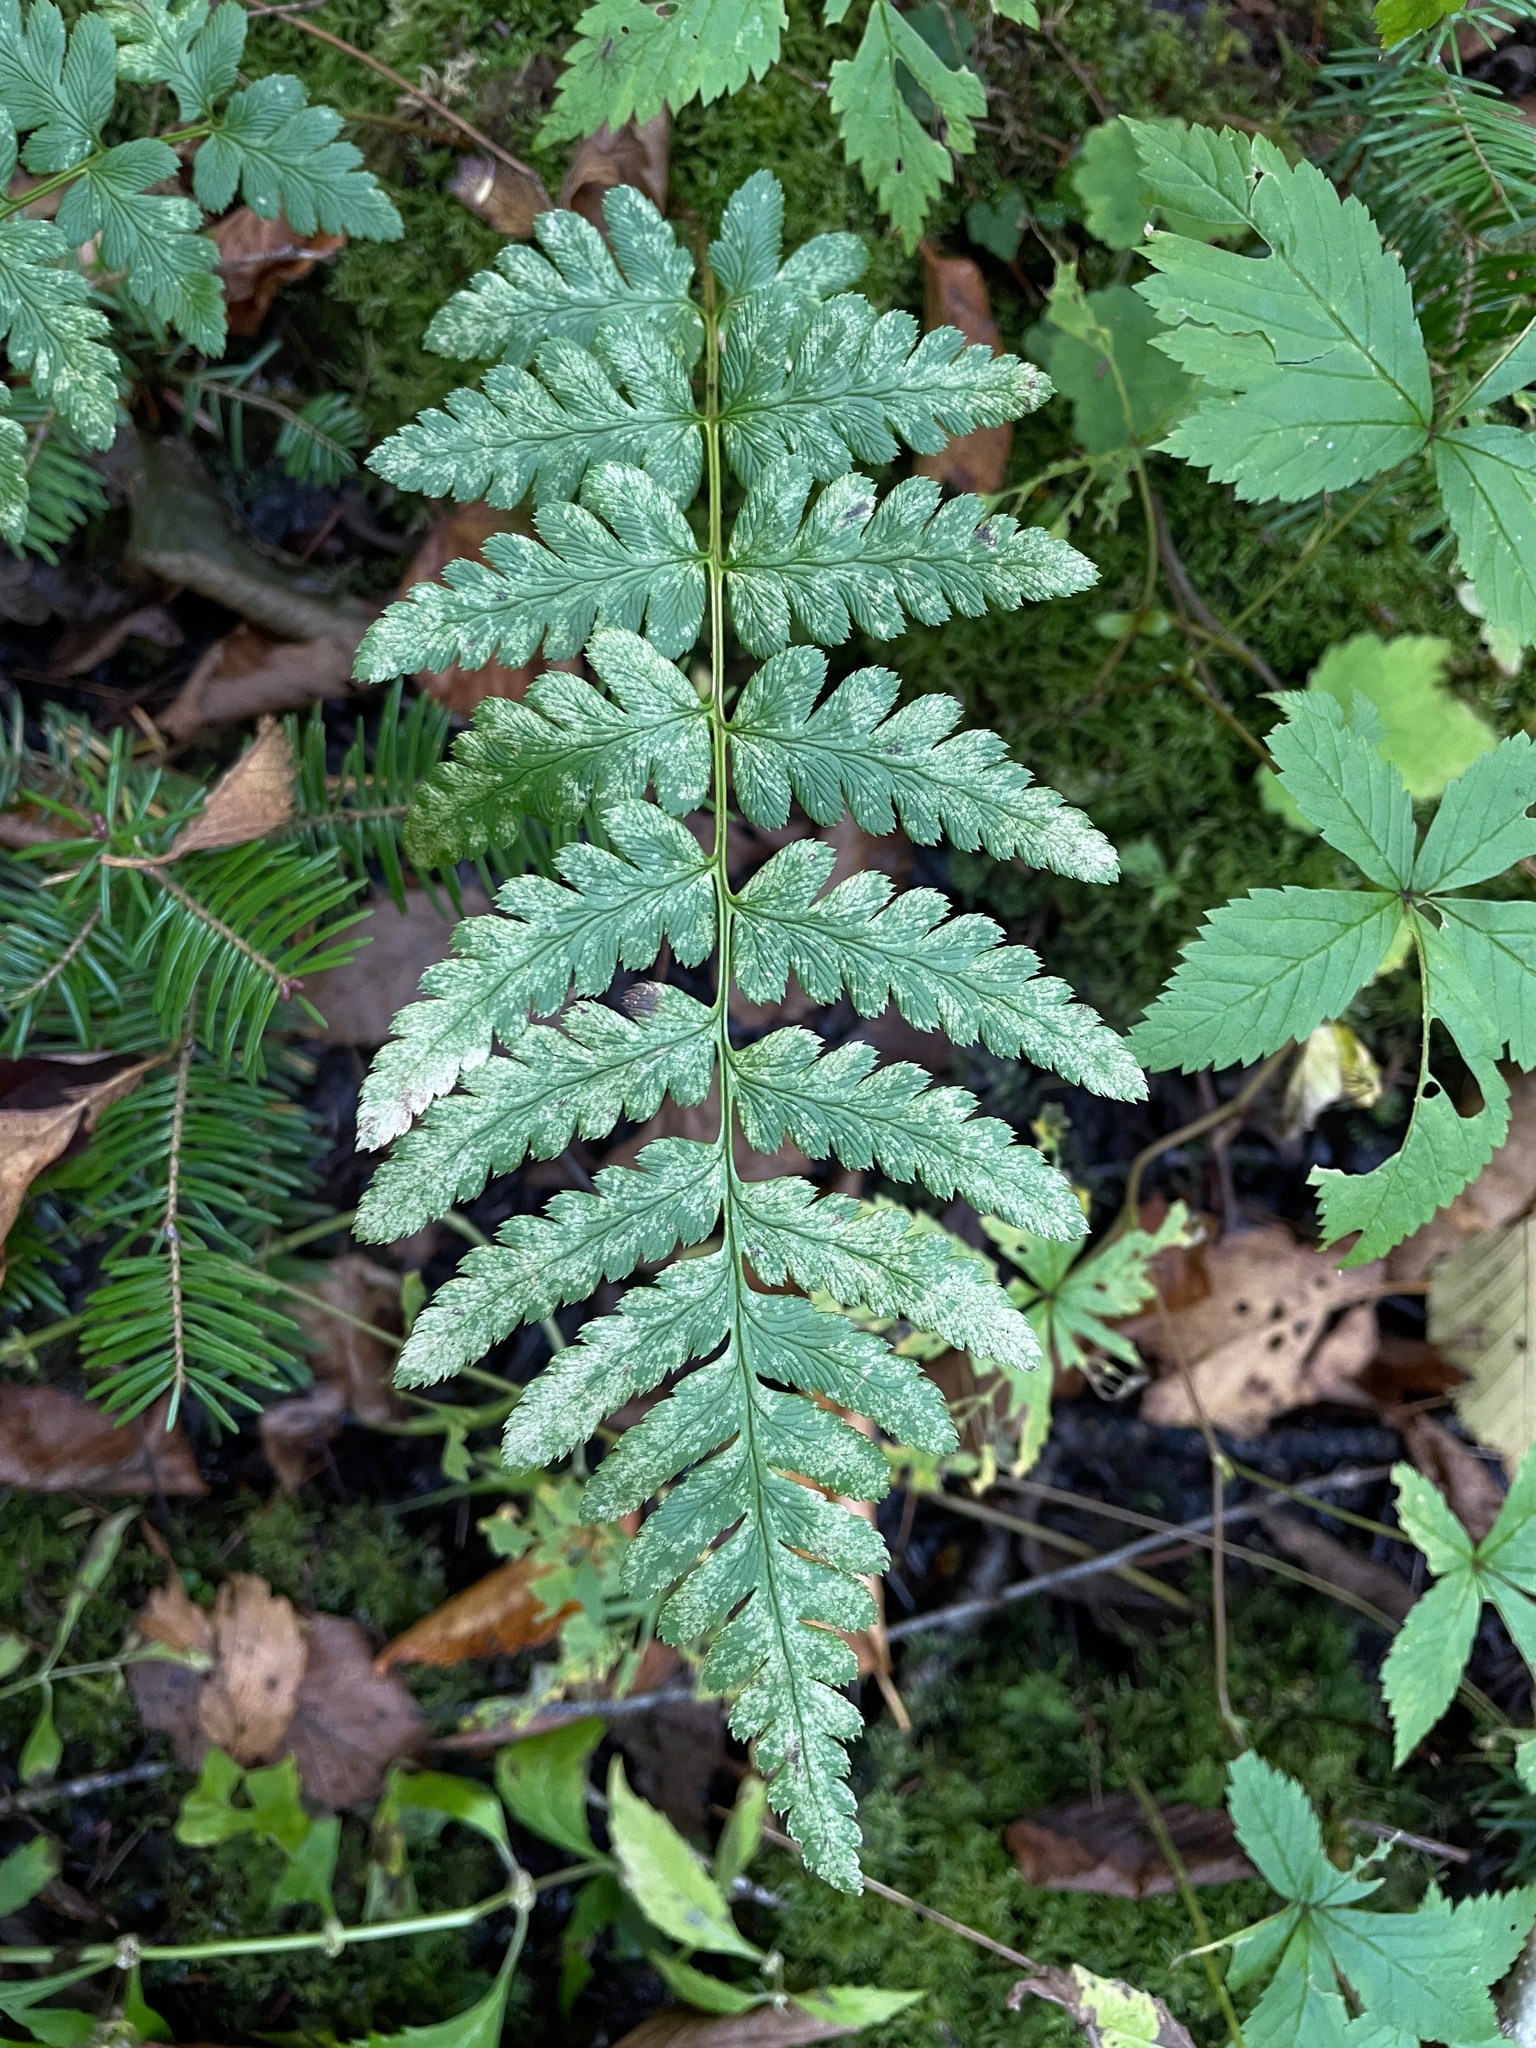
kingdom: Plantae
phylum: Tracheophyta
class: Polypodiopsida
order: Polypodiales
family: Dryopteridaceae
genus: Dryopteris
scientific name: Dryopteris cristata
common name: Crested wood fern
